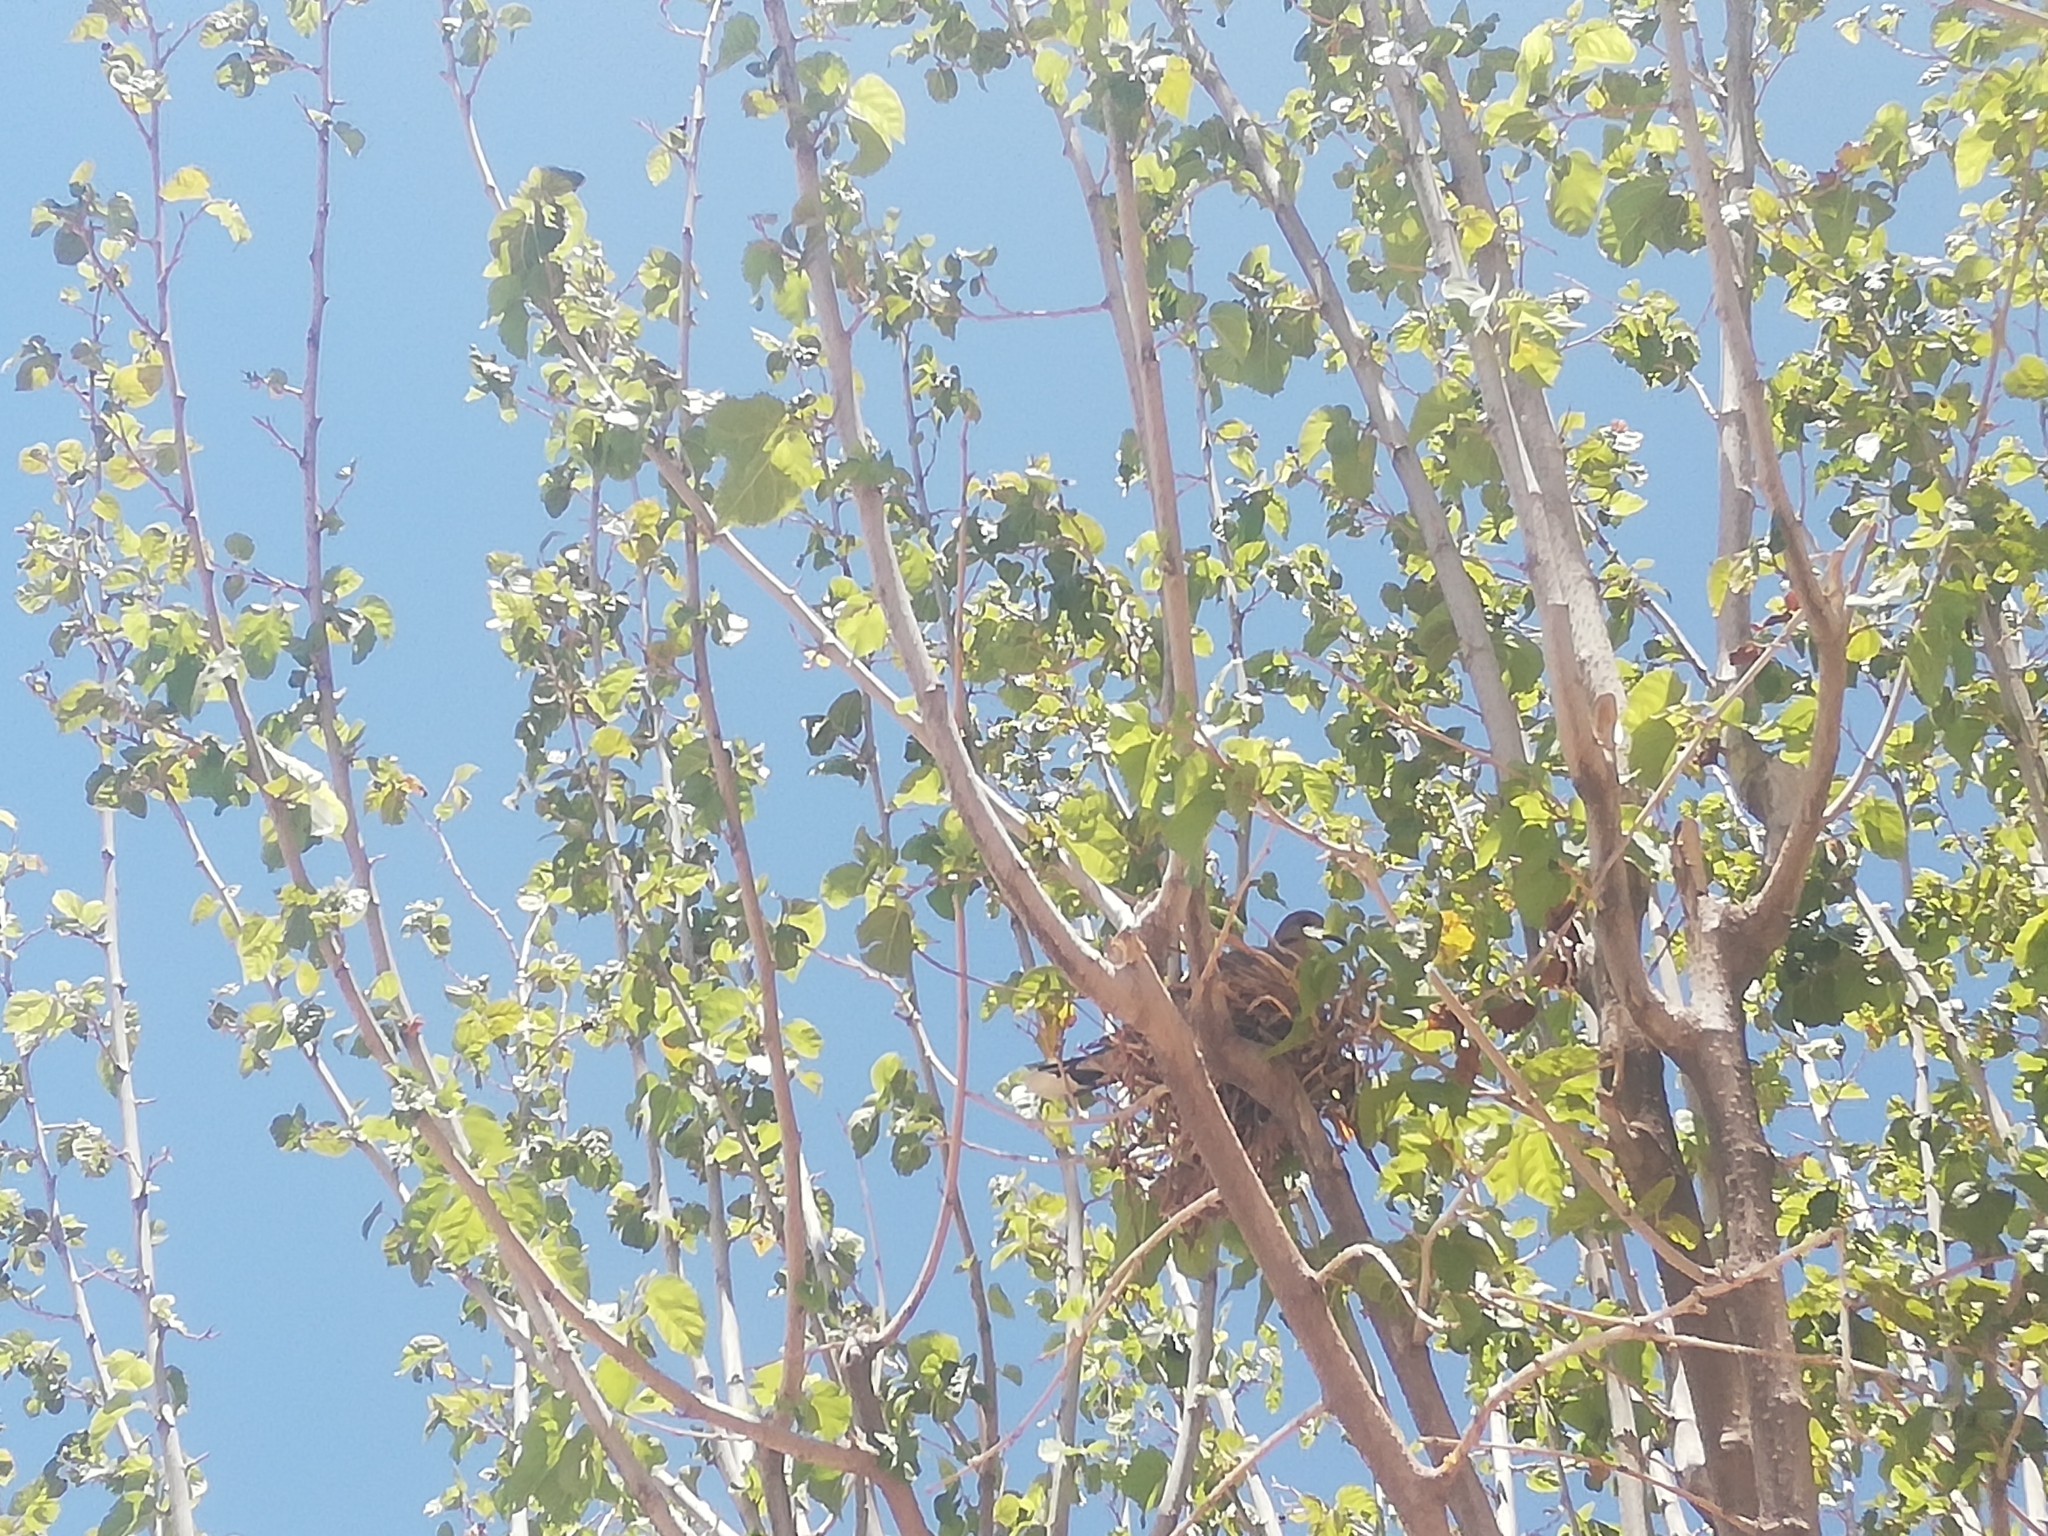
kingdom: Animalia
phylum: Chordata
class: Aves
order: Columbiformes
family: Columbidae
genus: Zenaida
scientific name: Zenaida asiatica
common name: White-winged dove
